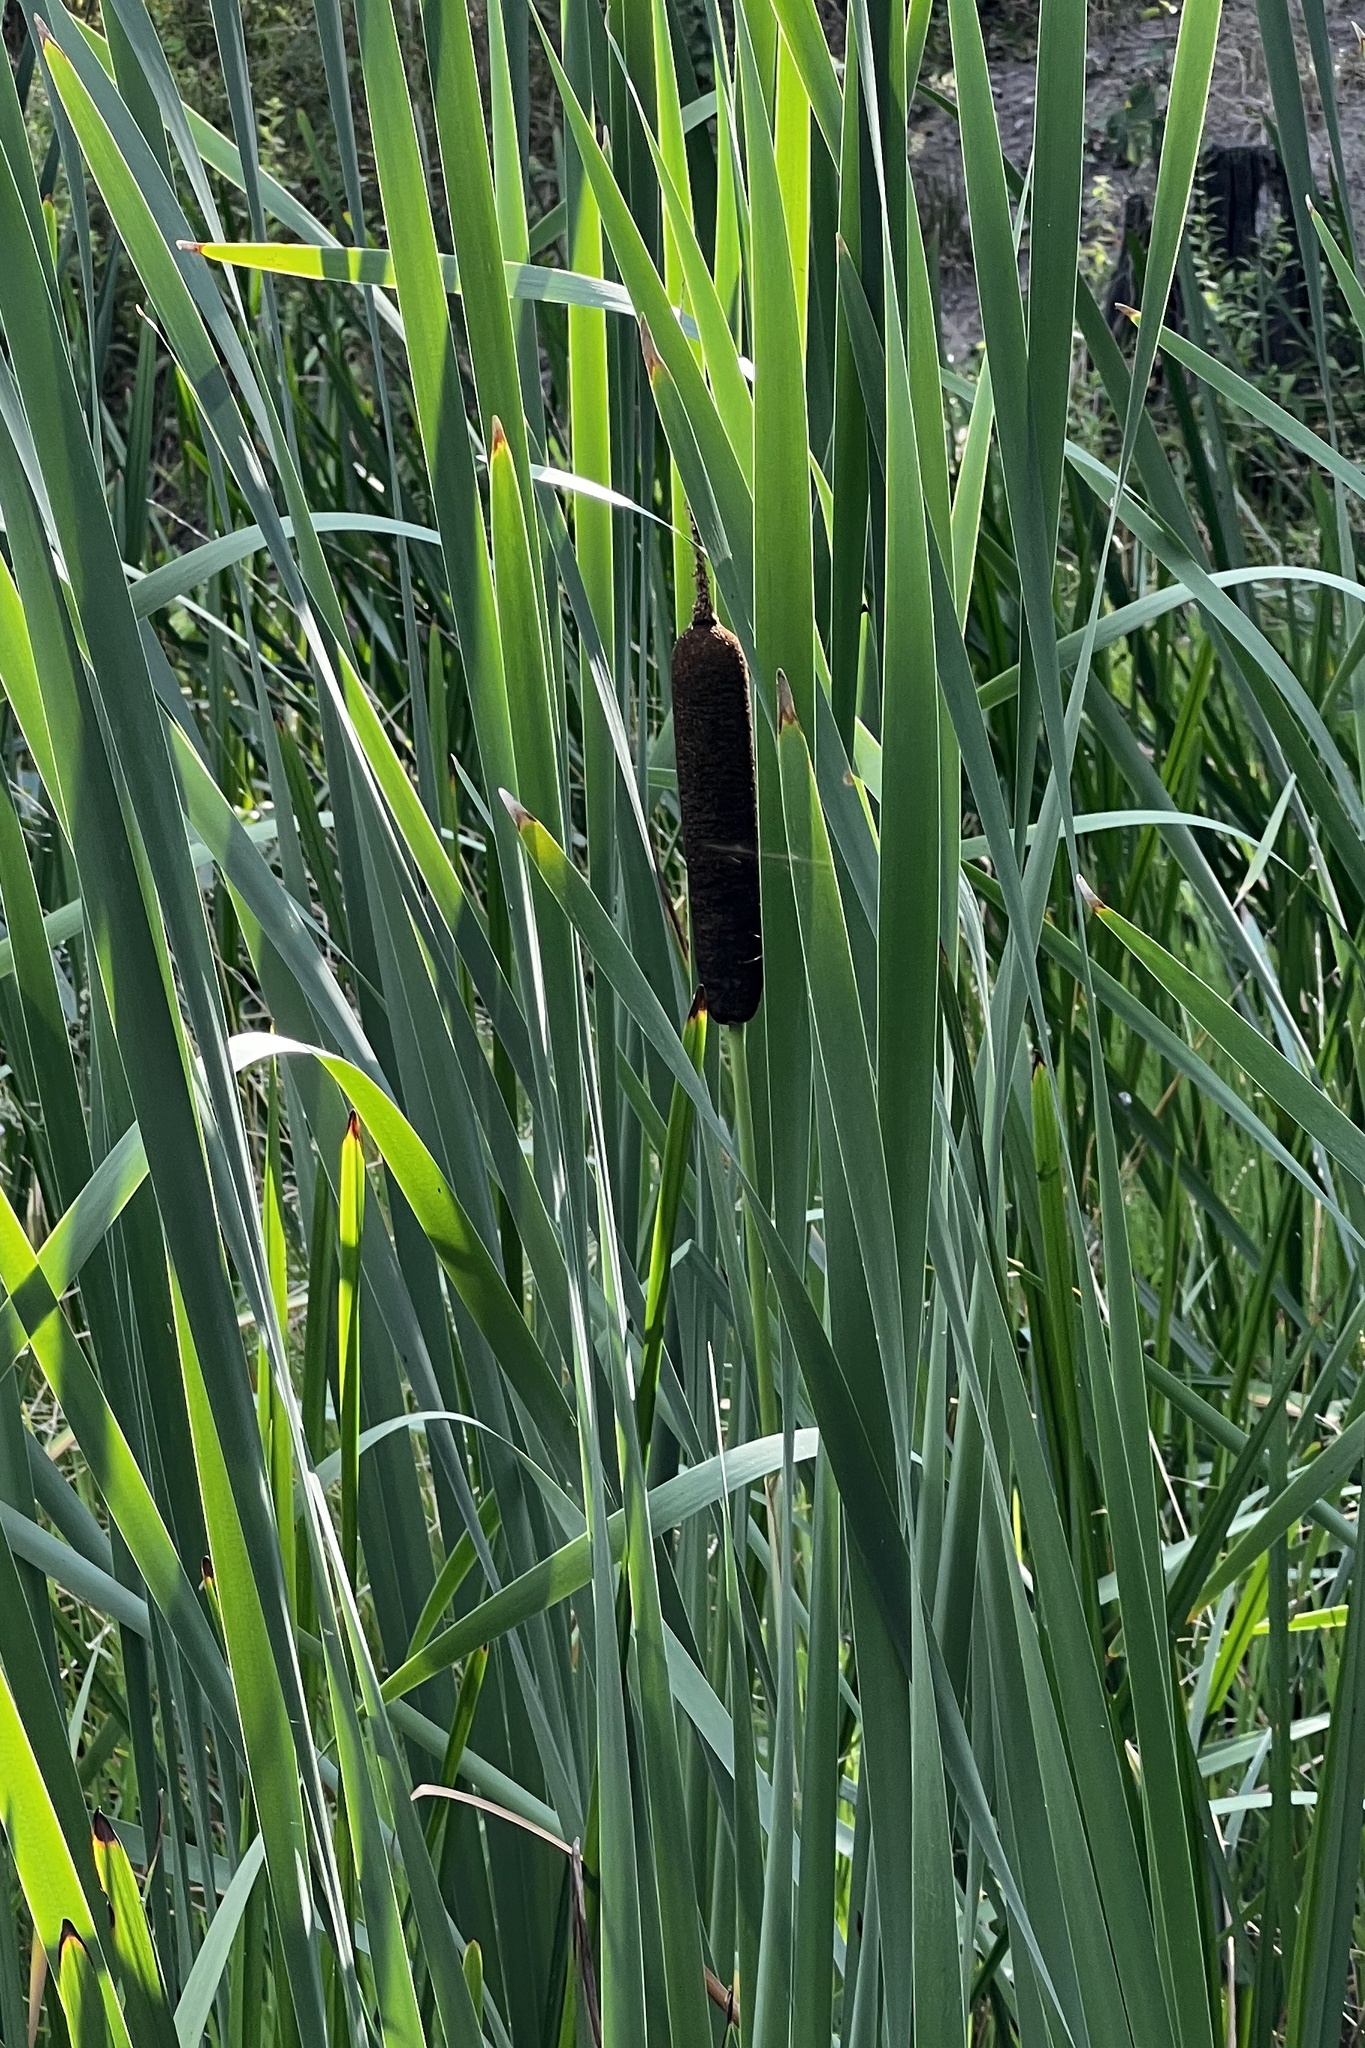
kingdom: Plantae
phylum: Tracheophyta
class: Liliopsida
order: Poales
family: Typhaceae
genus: Typha
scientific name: Typha latifolia
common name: Broadleaf cattail
